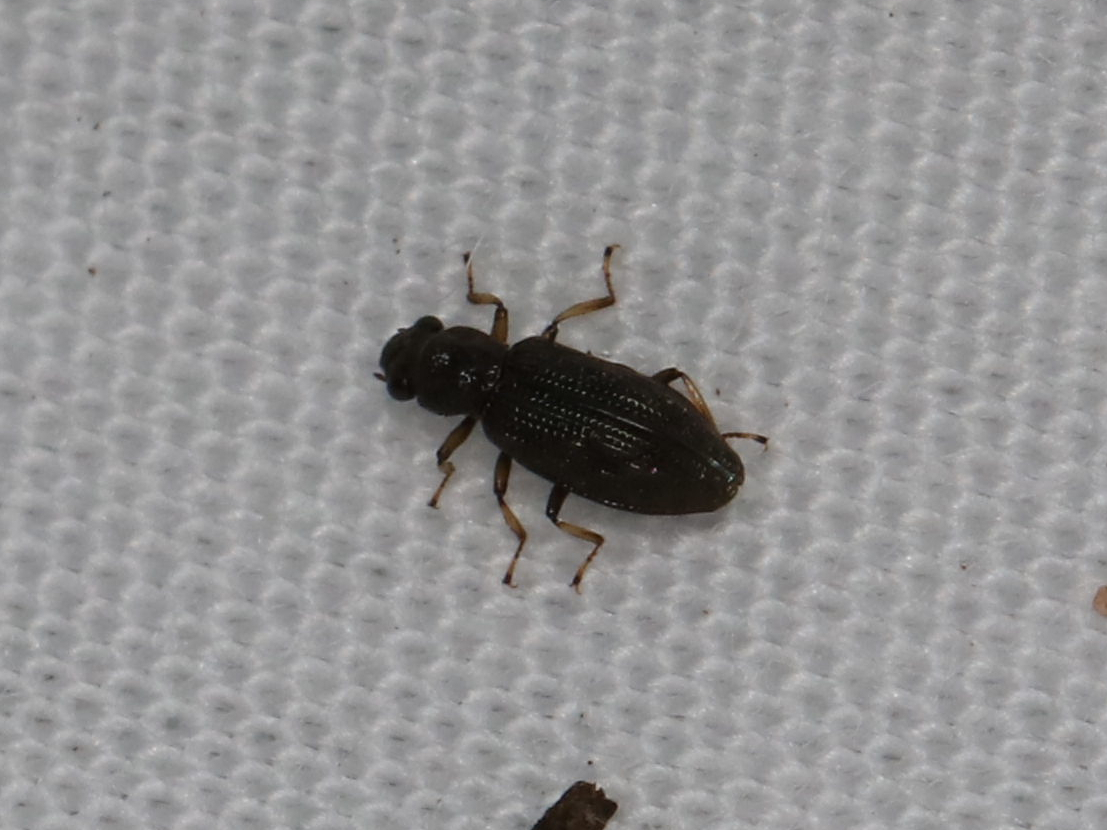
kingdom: Animalia
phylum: Arthropoda
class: Insecta
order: Coleoptera
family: Hydrochidae
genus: Hydrochus
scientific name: Hydrochus
